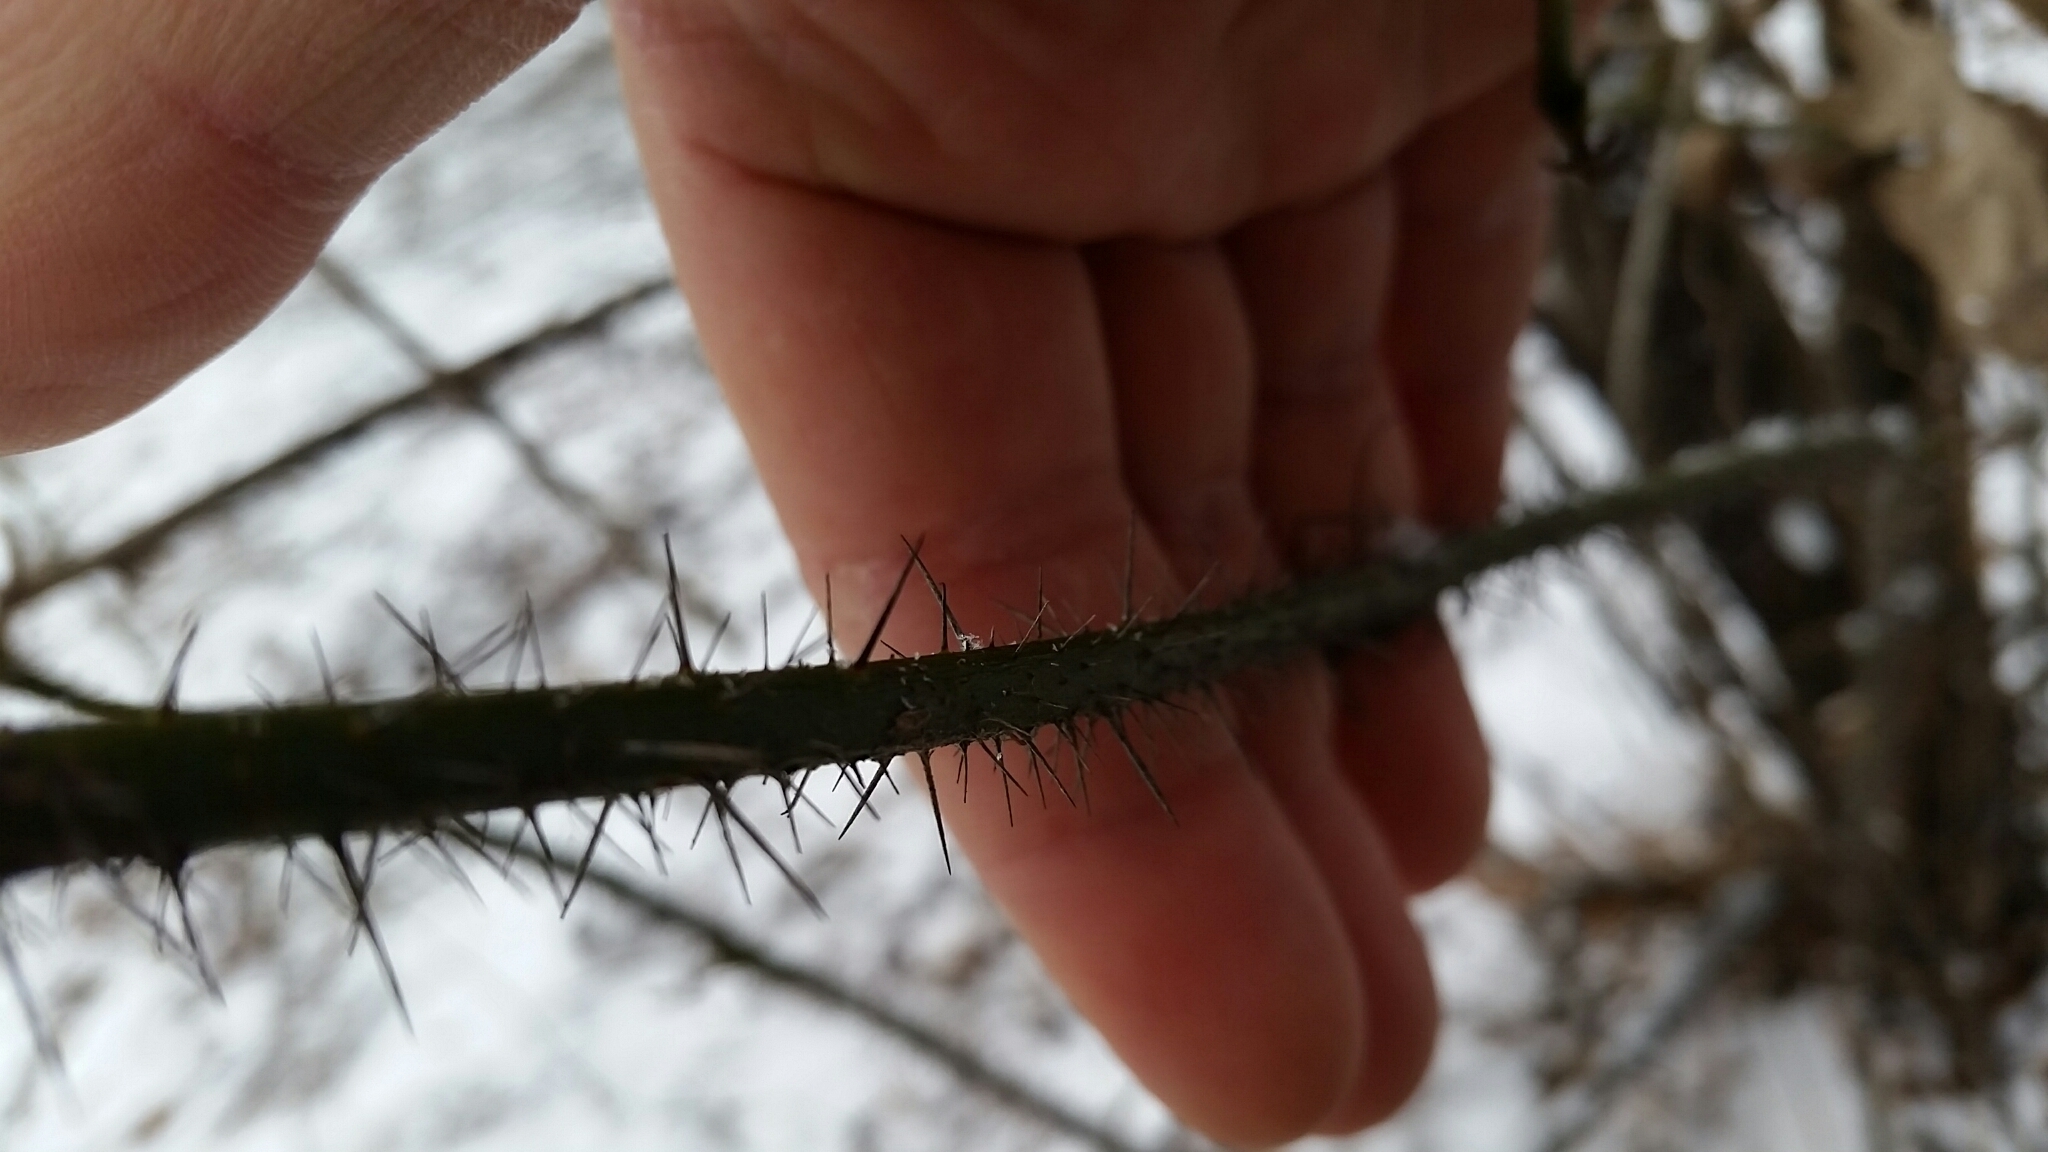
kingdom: Plantae
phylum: Tracheophyta
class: Liliopsida
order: Liliales
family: Smilacaceae
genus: Smilax
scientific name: Smilax tamnoides
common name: Hellfetter
